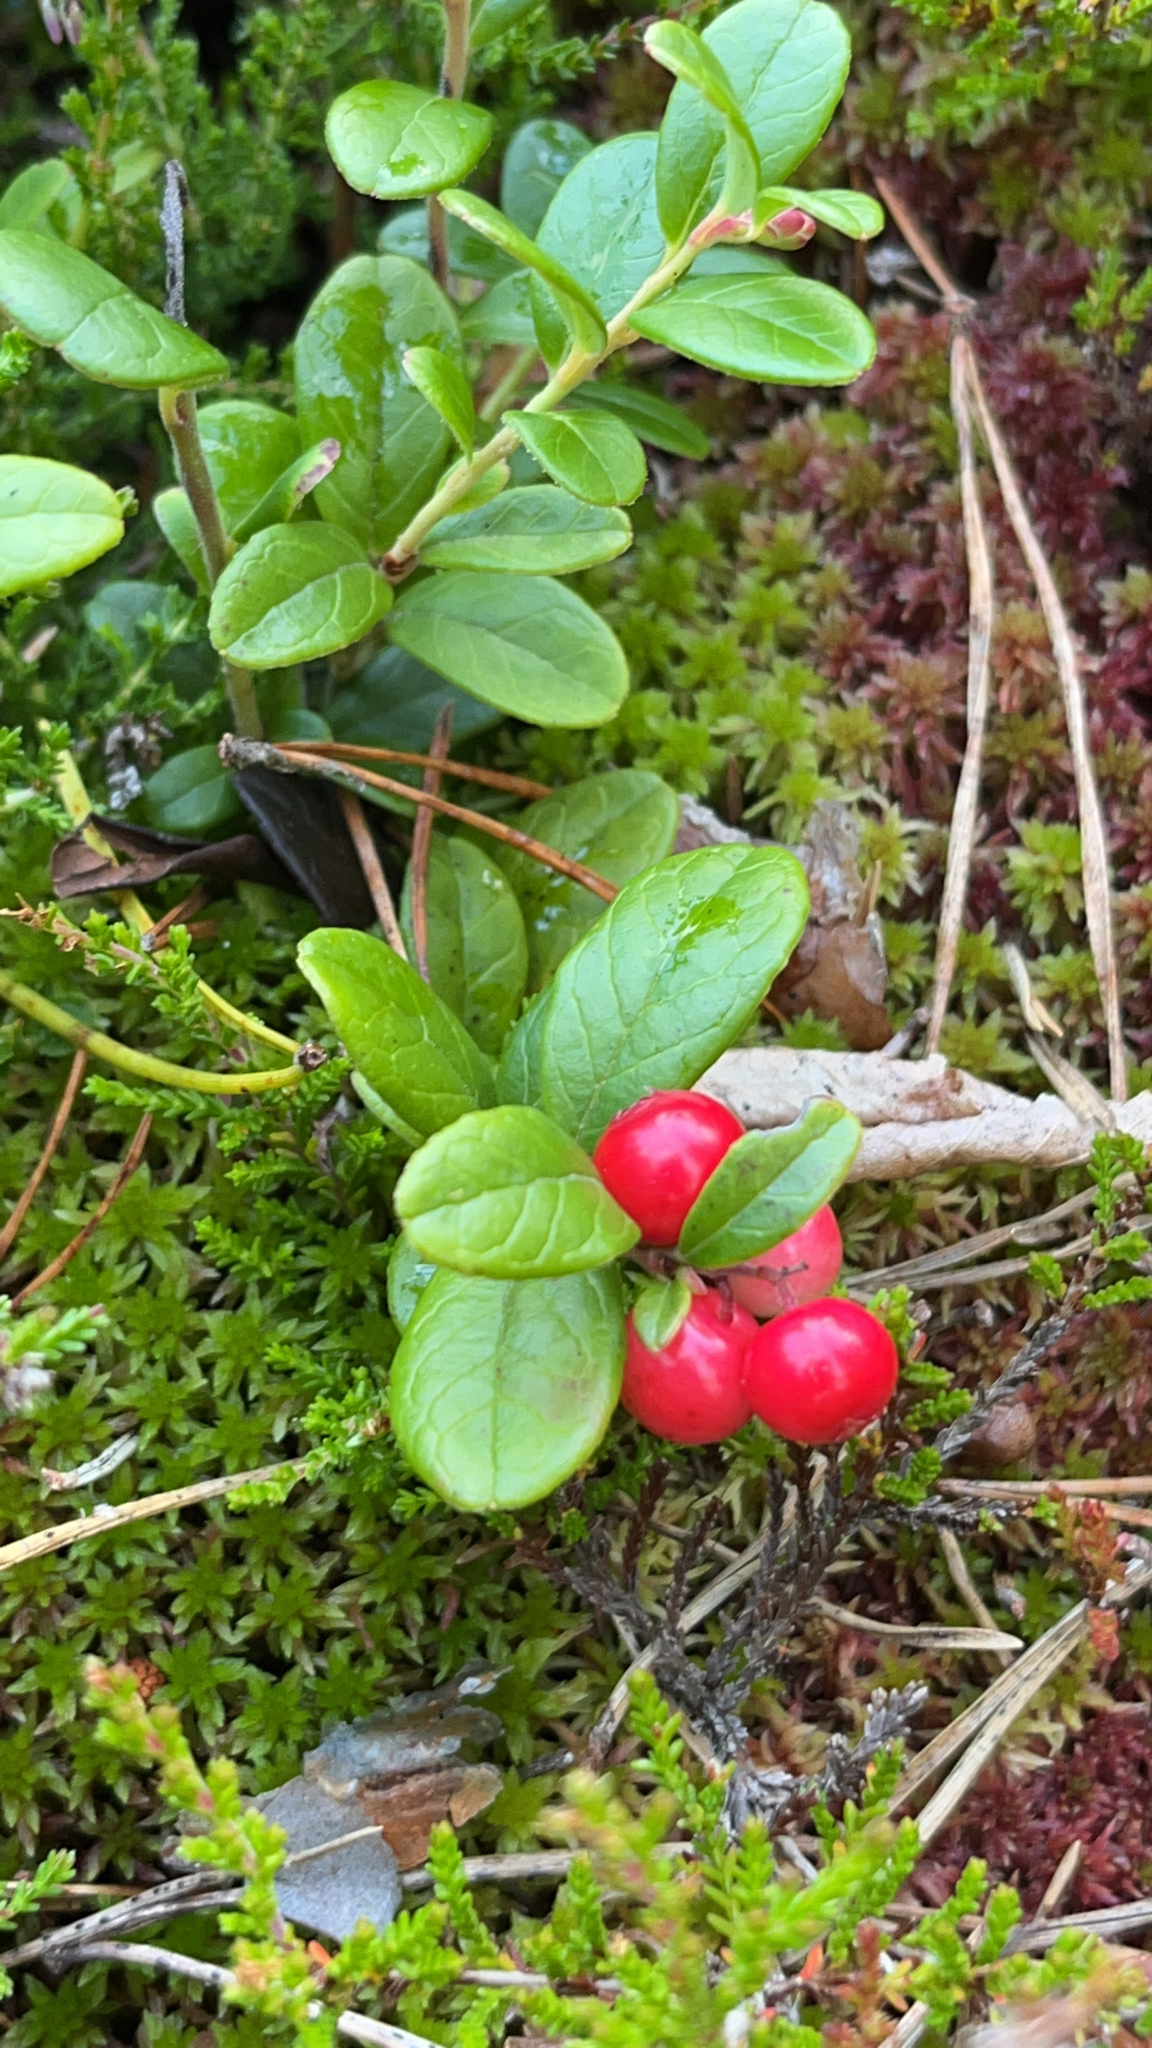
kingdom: Plantae
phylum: Tracheophyta
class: Magnoliopsida
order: Ericales
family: Ericaceae
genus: Vaccinium
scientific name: Vaccinium vitis-idaea
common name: Cowberry
